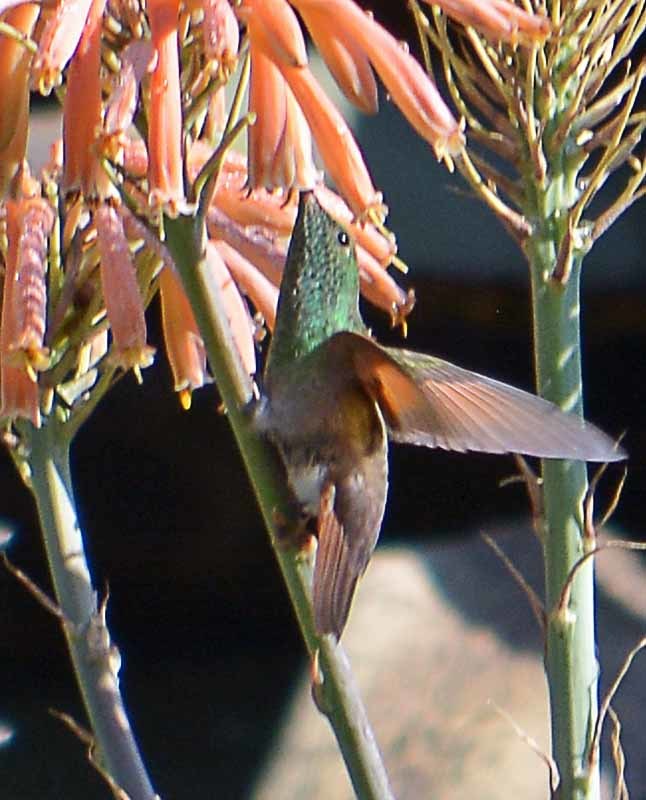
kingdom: Animalia
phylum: Chordata
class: Aves
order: Apodiformes
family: Trochilidae
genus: Saucerottia
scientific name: Saucerottia beryllina
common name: Berylline hummingbird
